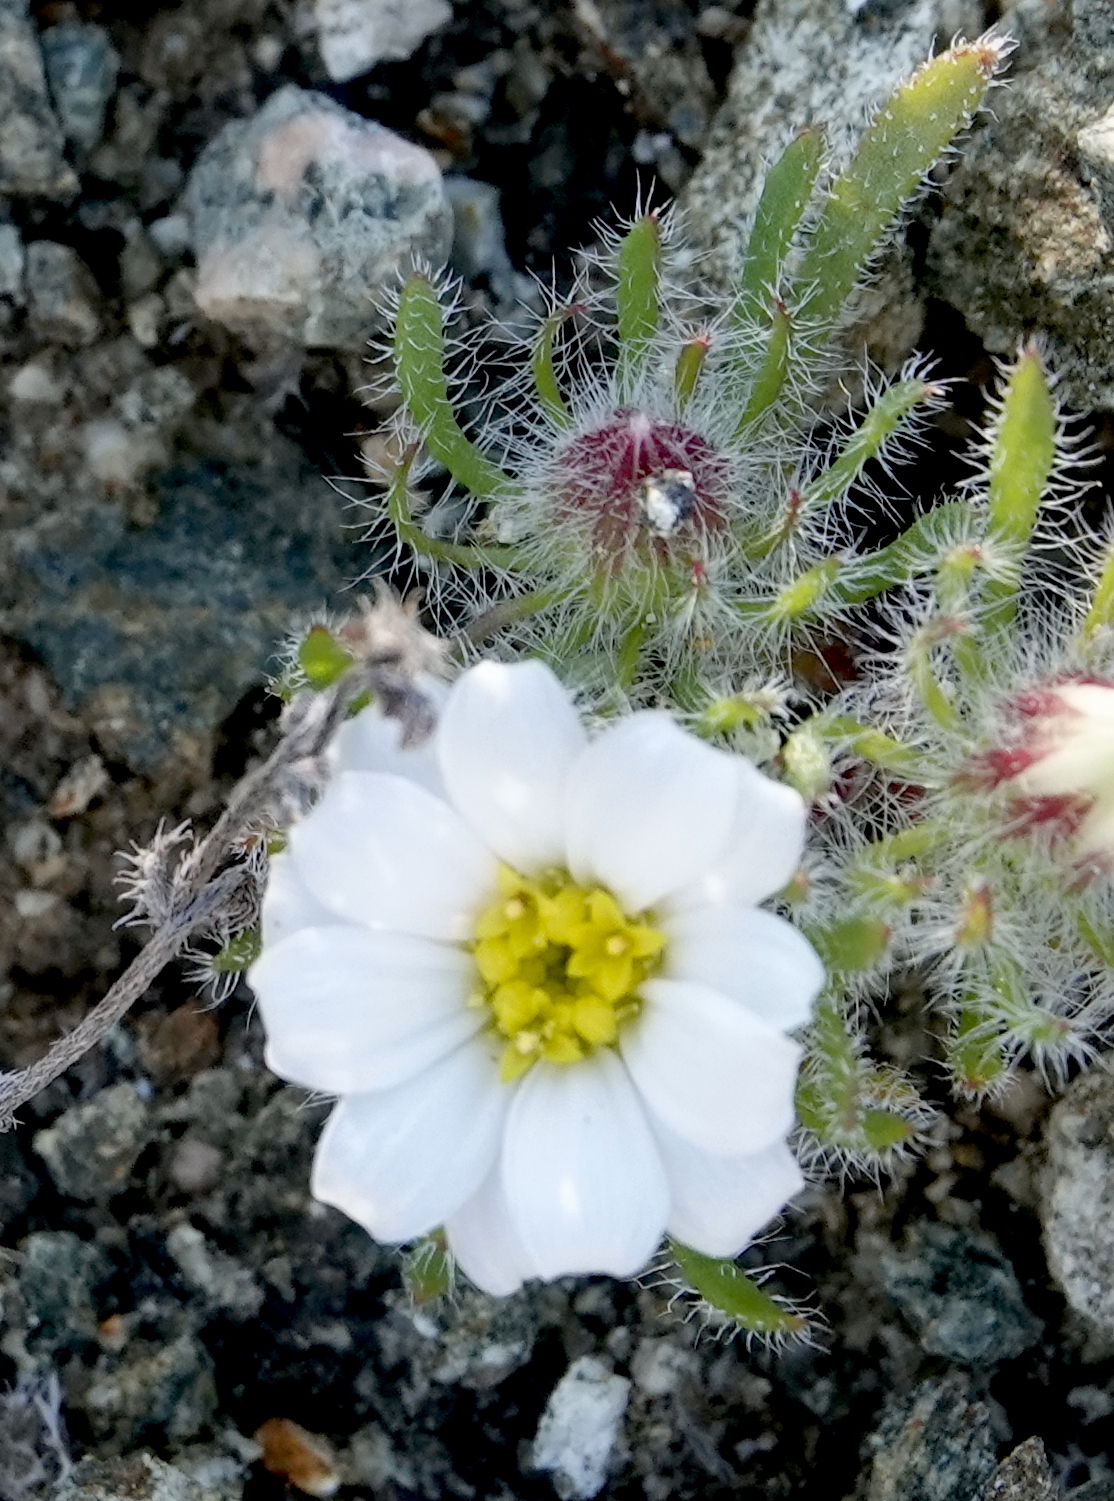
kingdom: Plantae
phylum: Tracheophyta
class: Magnoliopsida
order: Asterales
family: Asteraceae
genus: Monoptilon
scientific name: Monoptilon bellioides
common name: Bristly desertstar
